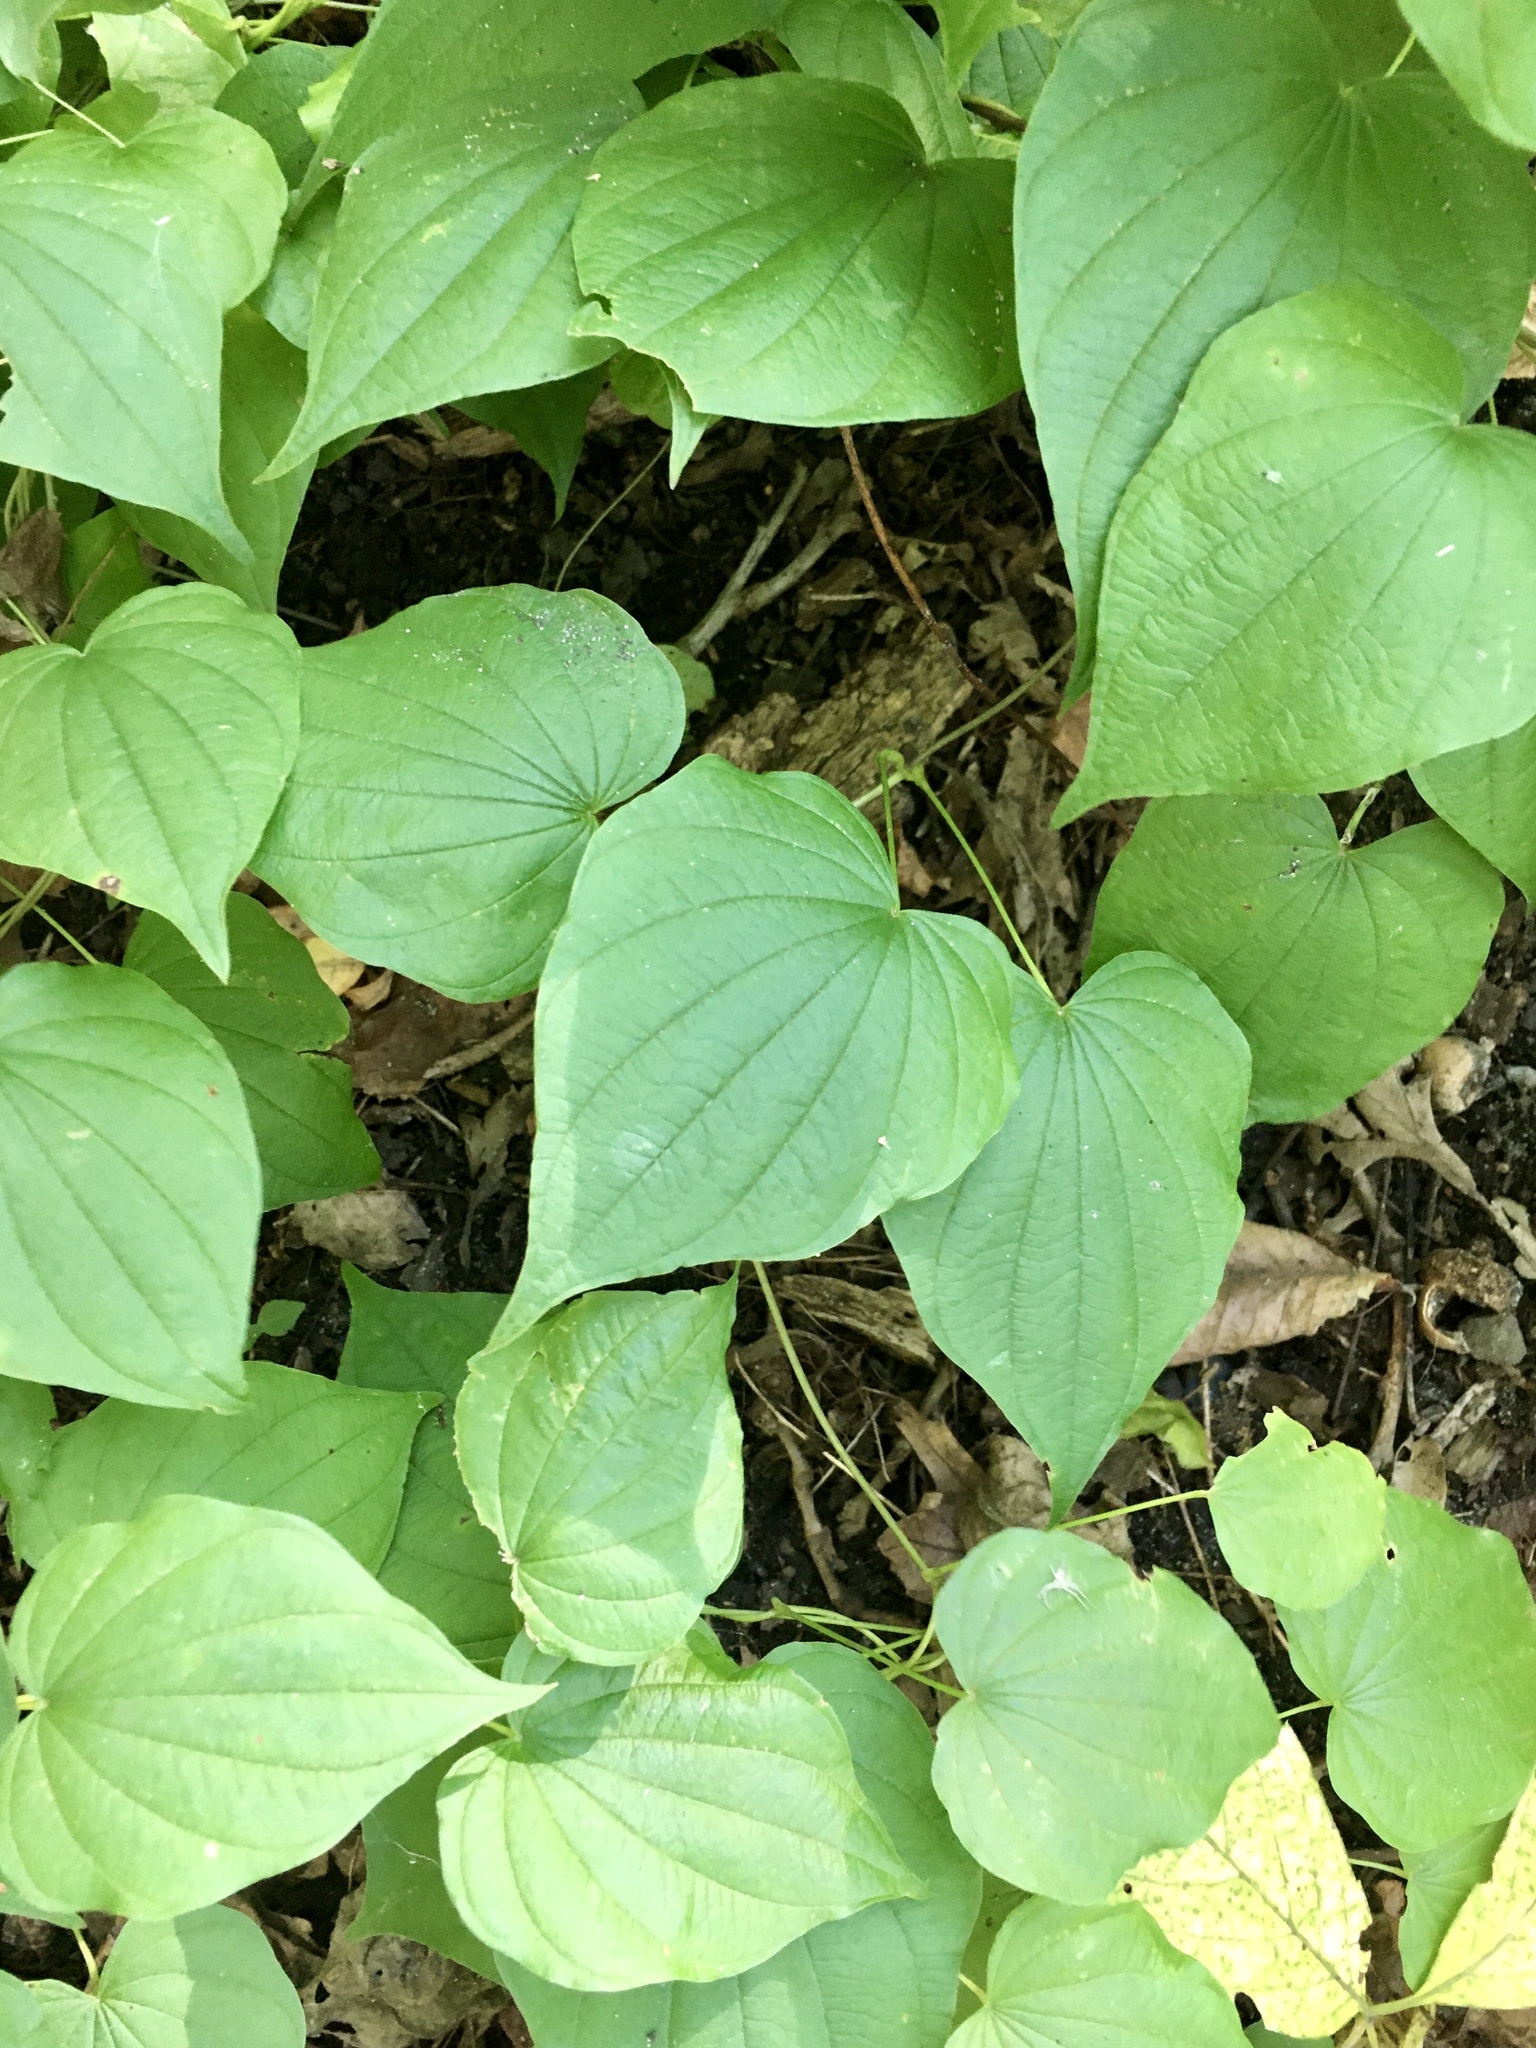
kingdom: Plantae
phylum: Tracheophyta
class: Liliopsida
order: Dioscoreales
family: Dioscoreaceae
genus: Dioscorea
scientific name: Dioscorea villosa
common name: Wild yam
